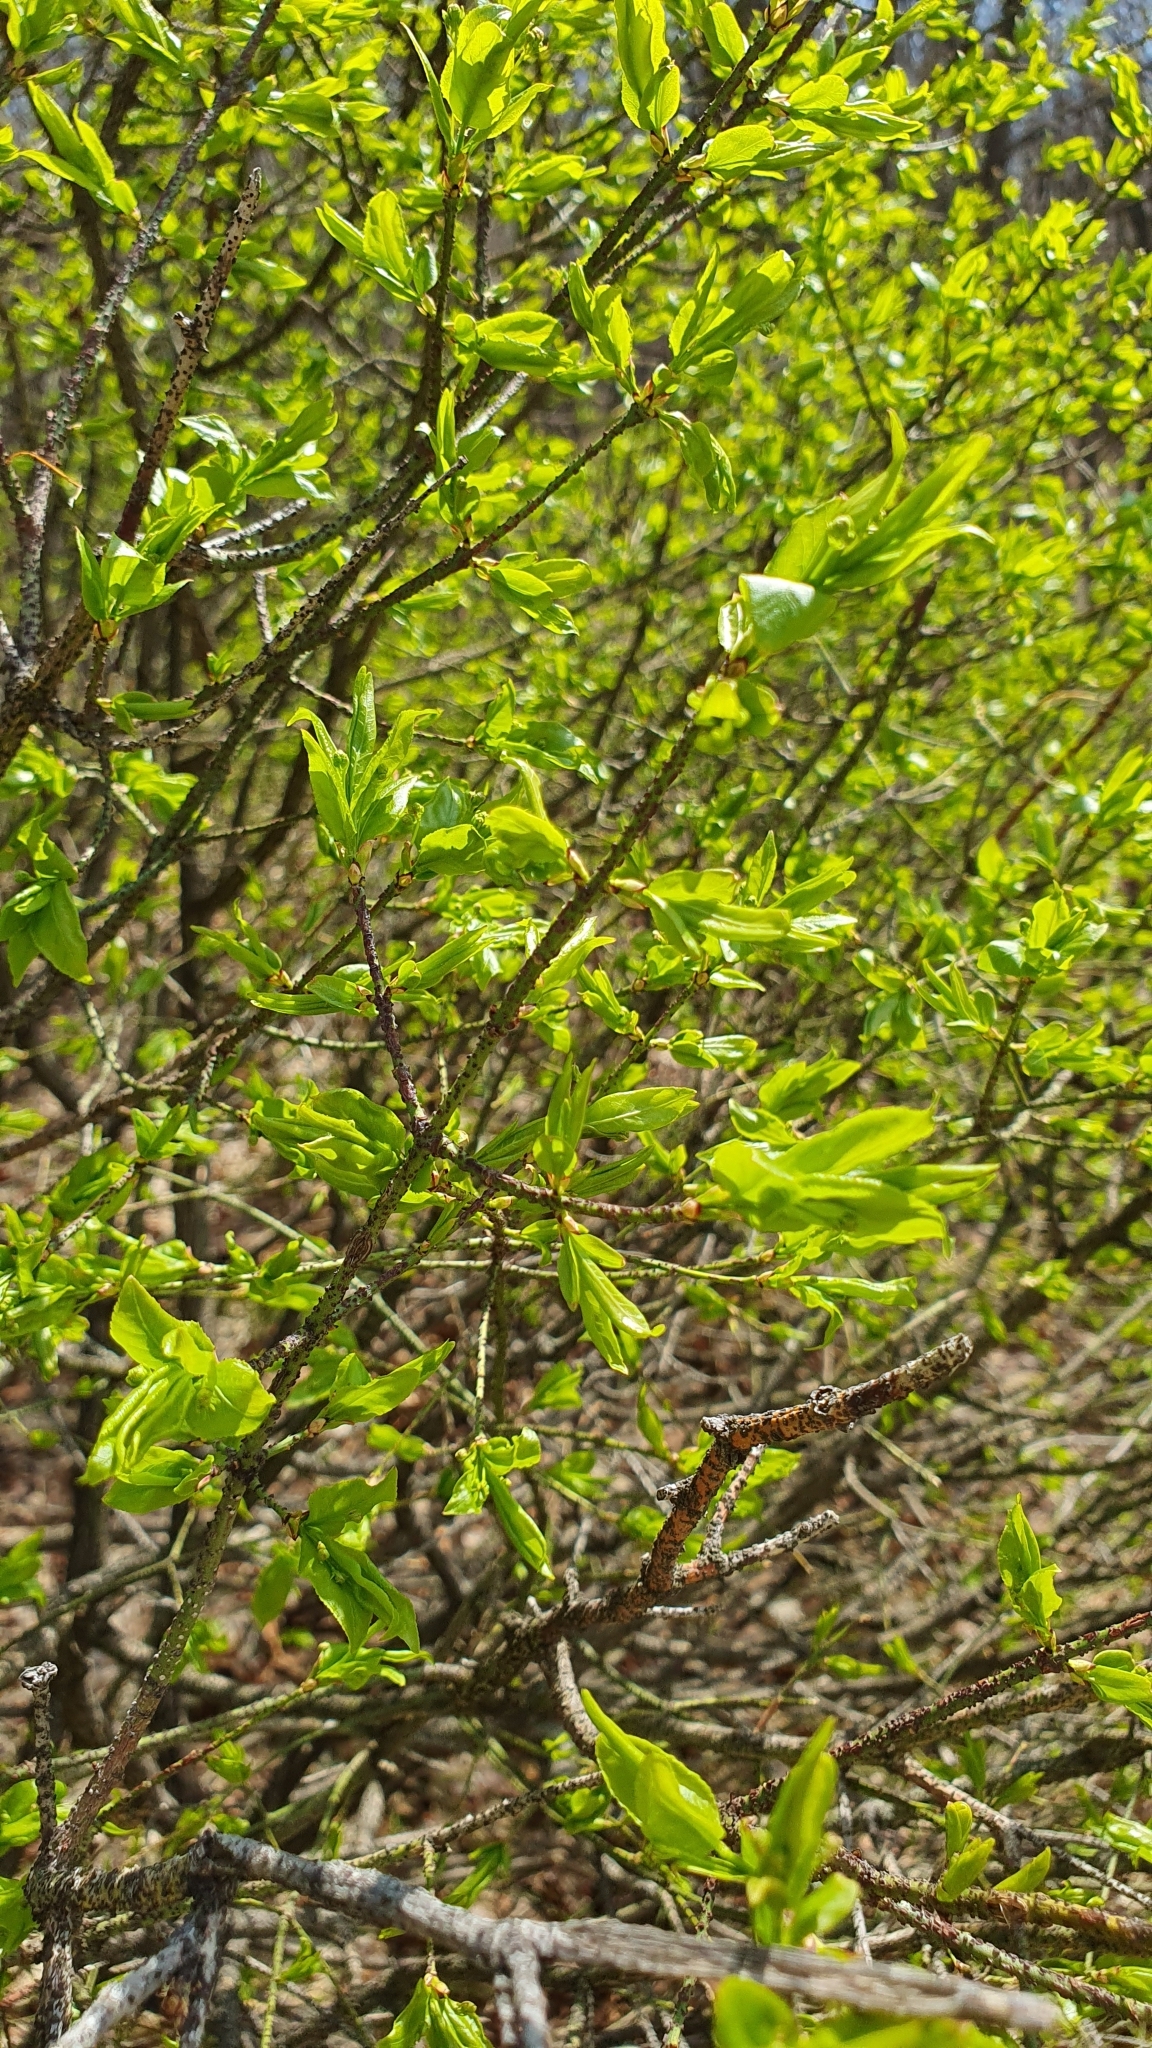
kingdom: Plantae
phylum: Tracheophyta
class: Magnoliopsida
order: Celastrales
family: Celastraceae
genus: Euonymus
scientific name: Euonymus verrucosus
